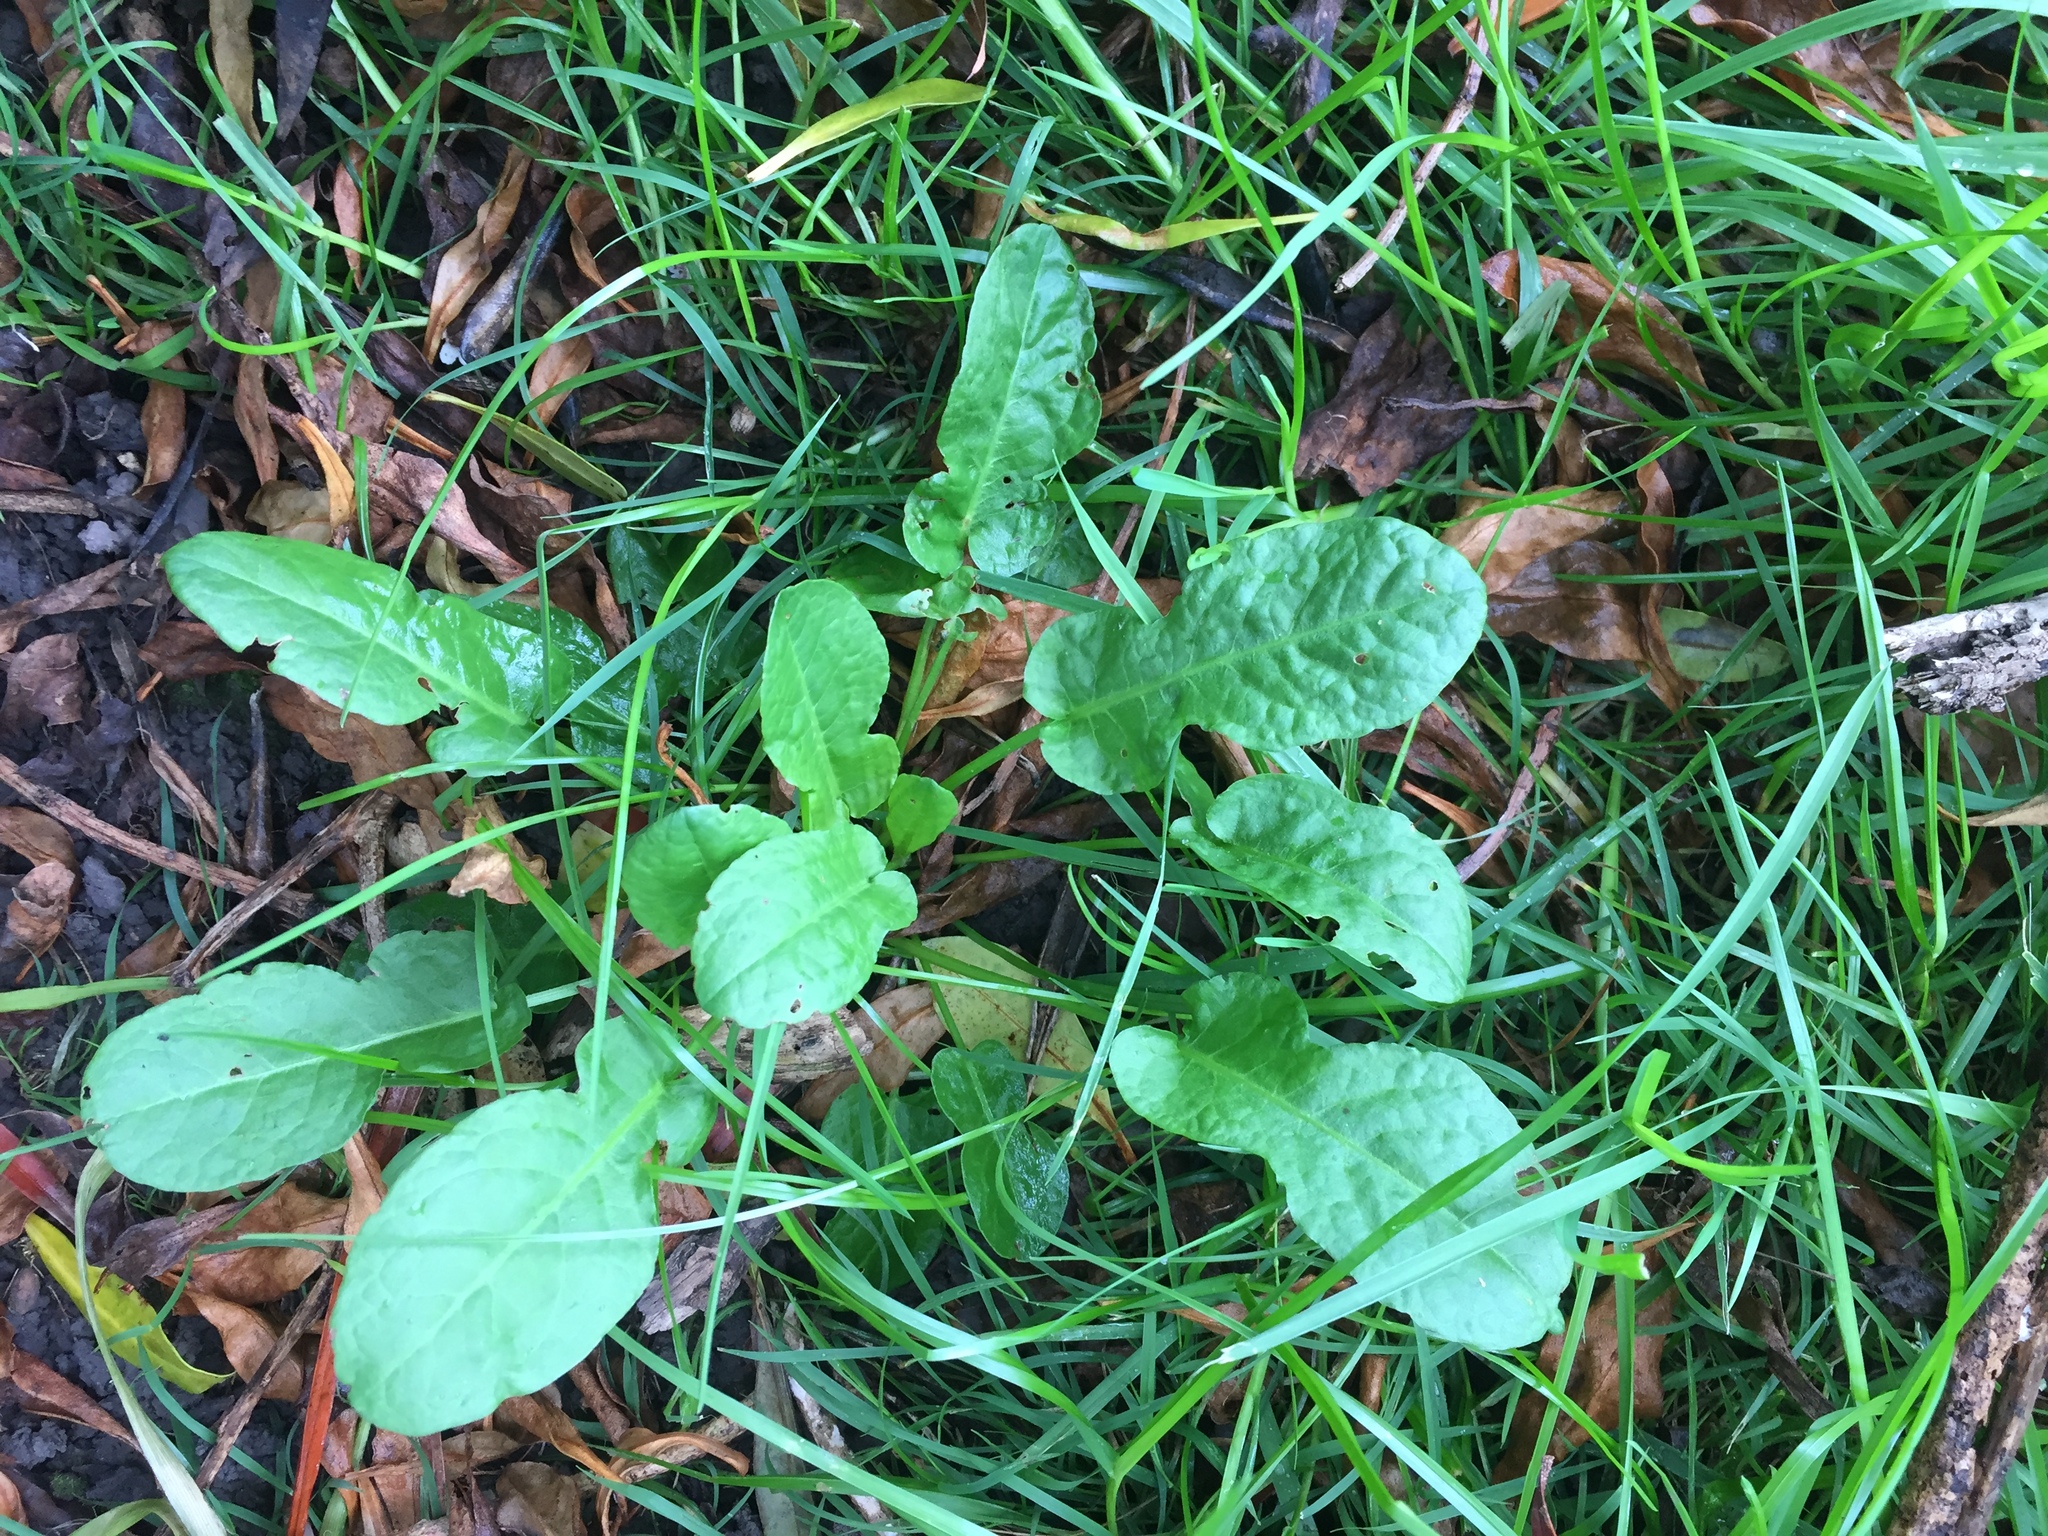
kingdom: Plantae
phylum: Tracheophyta
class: Magnoliopsida
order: Caryophyllales
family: Polygonaceae
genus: Rumex
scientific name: Rumex pulcher
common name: Fiddle dock
